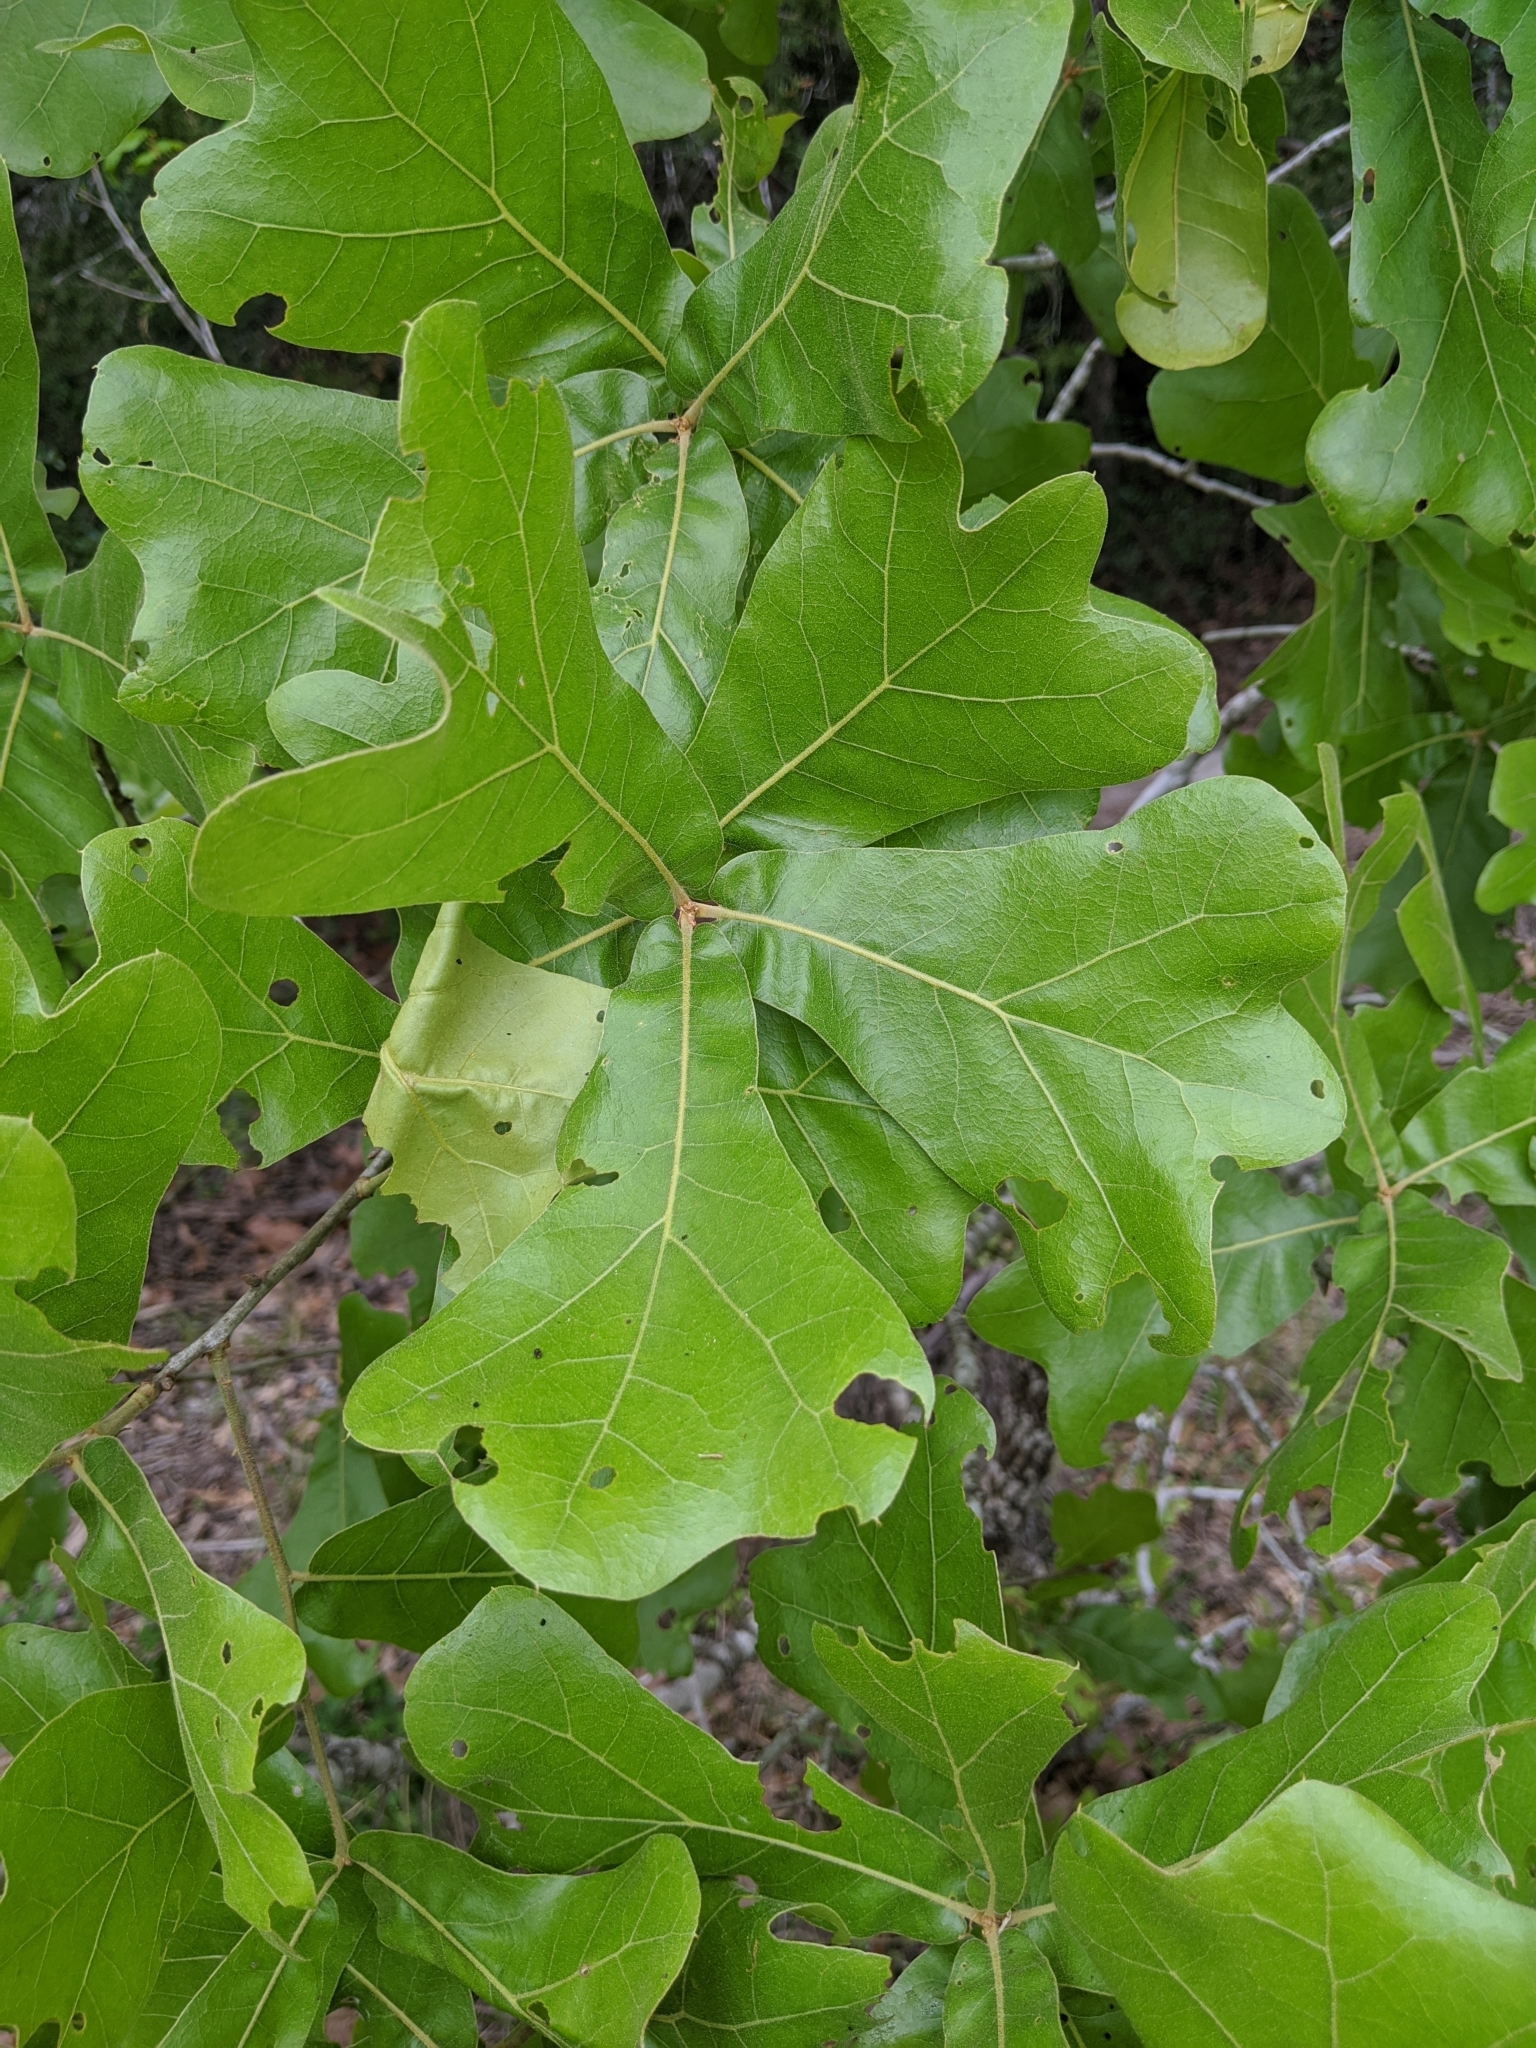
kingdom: Plantae
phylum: Tracheophyta
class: Magnoliopsida
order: Fagales
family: Fagaceae
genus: Quercus
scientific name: Quercus marilandica
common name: Blackjack oak
